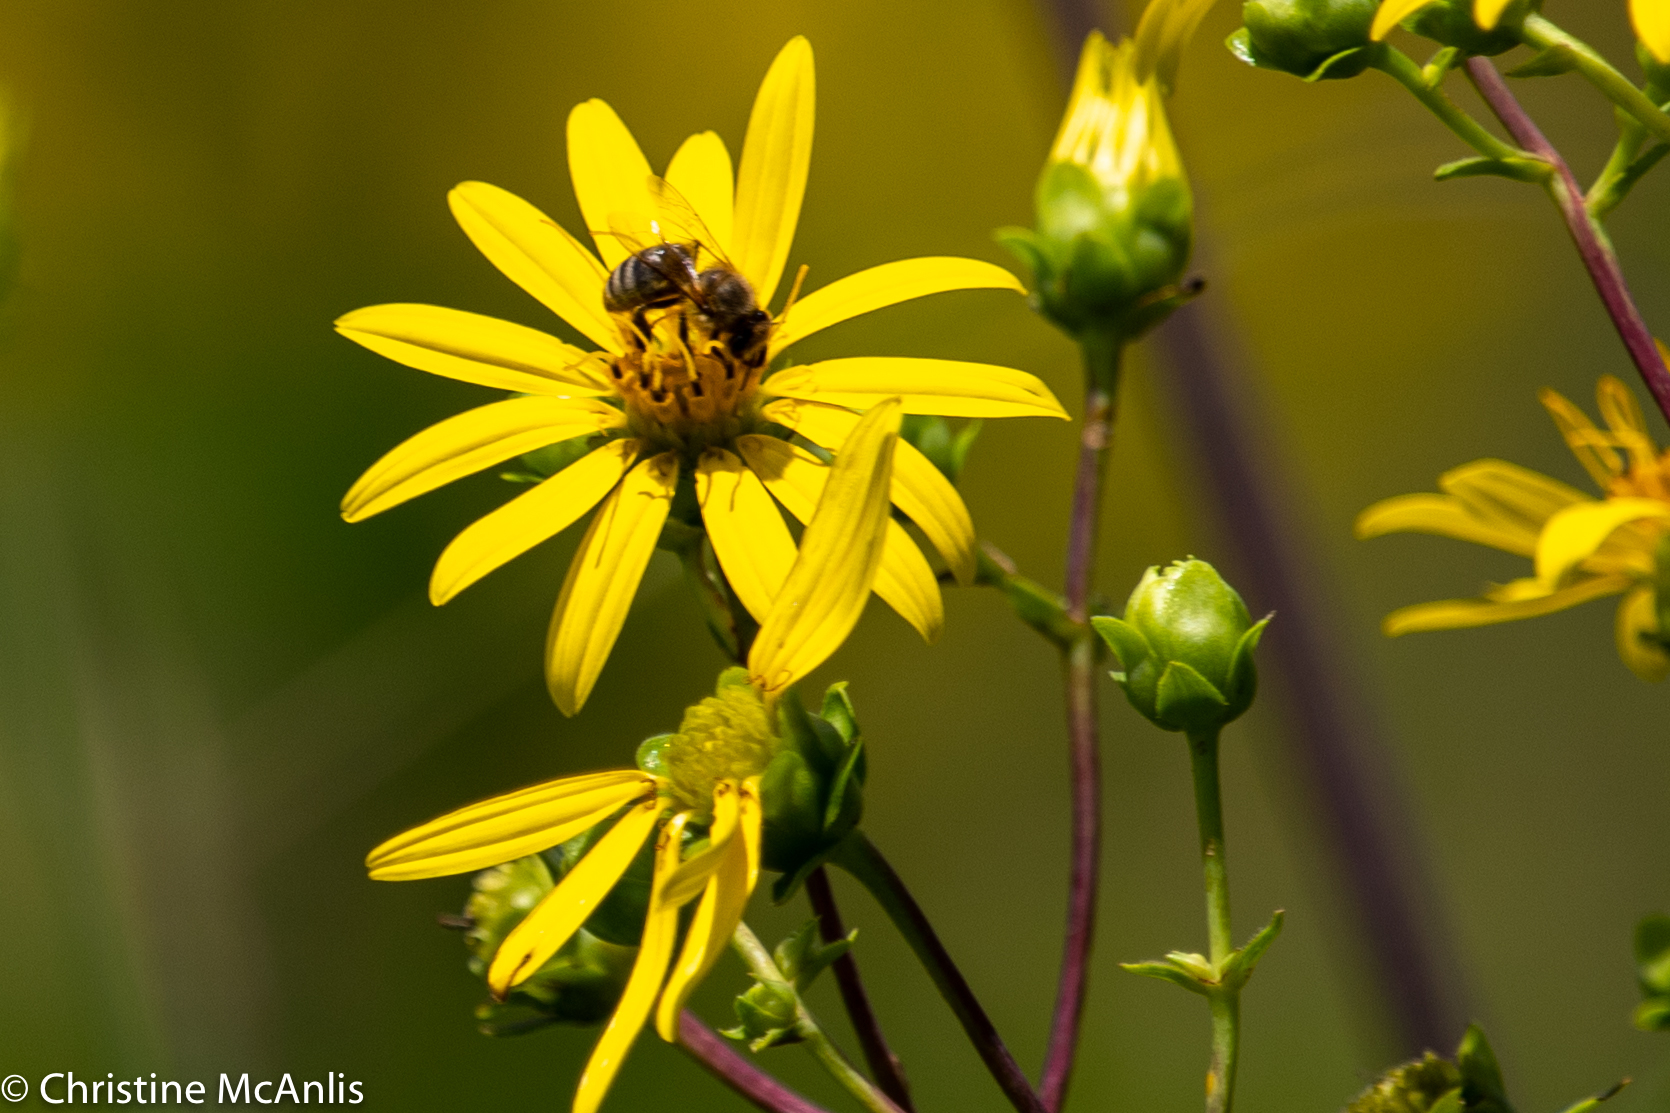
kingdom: Animalia
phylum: Arthropoda
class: Insecta
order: Hymenoptera
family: Apidae
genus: Apis
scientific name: Apis mellifera
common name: Honey bee
